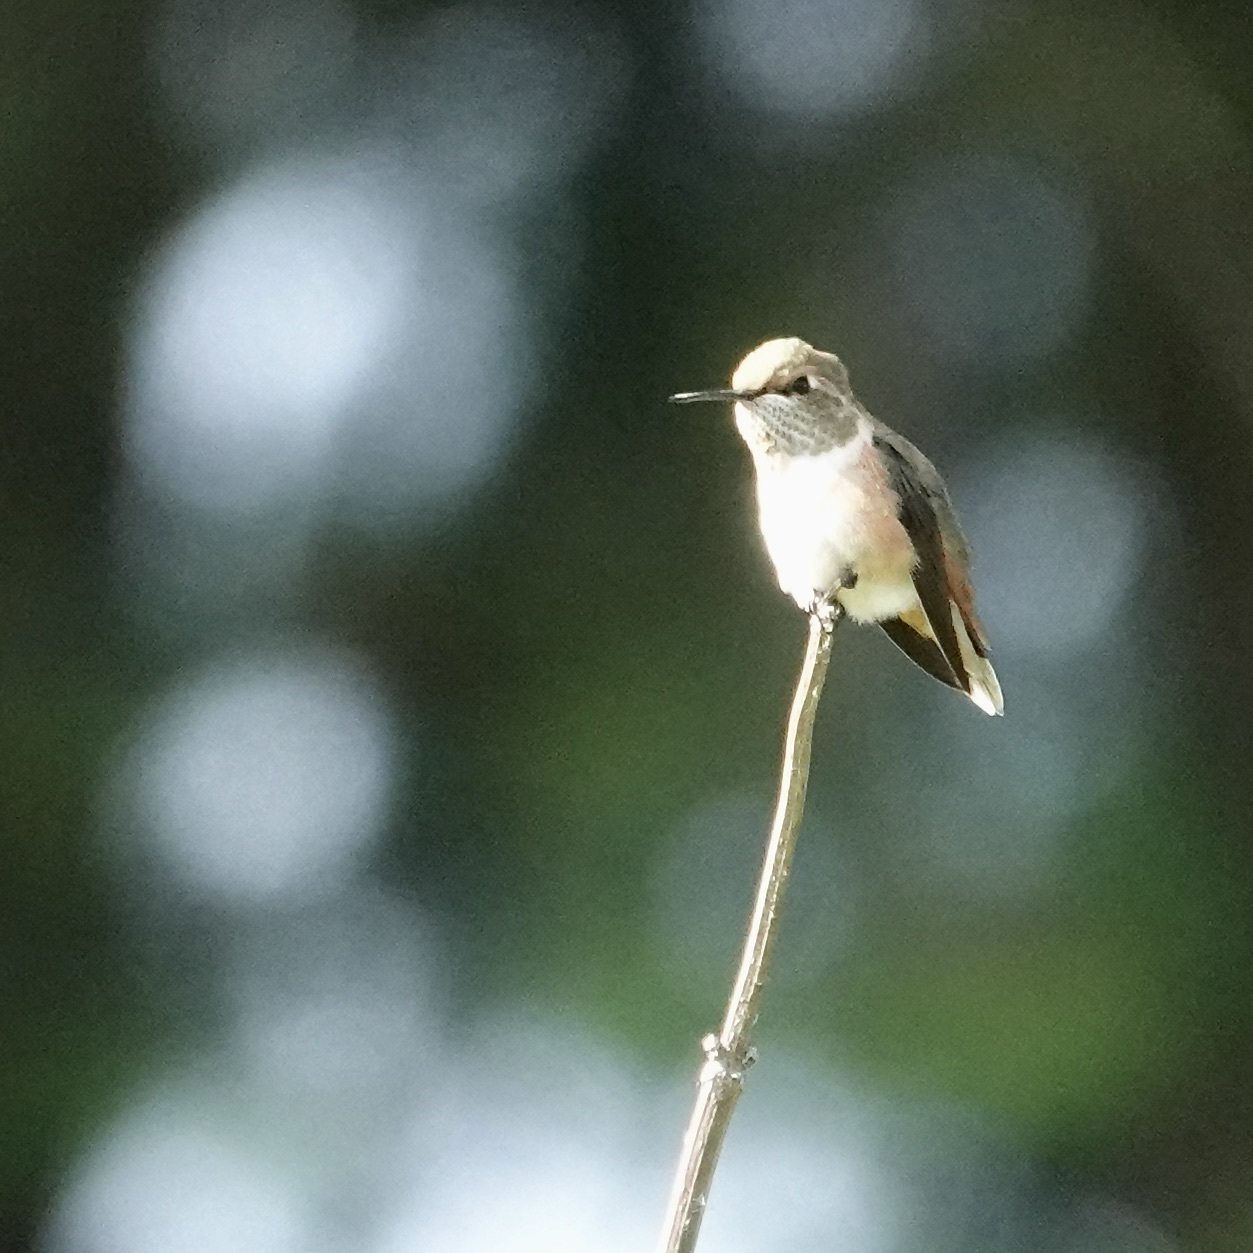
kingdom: Animalia
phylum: Chordata
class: Aves
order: Apodiformes
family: Trochilidae
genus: Selasphorus
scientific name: Selasphorus rufus
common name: Rufous hummingbird
